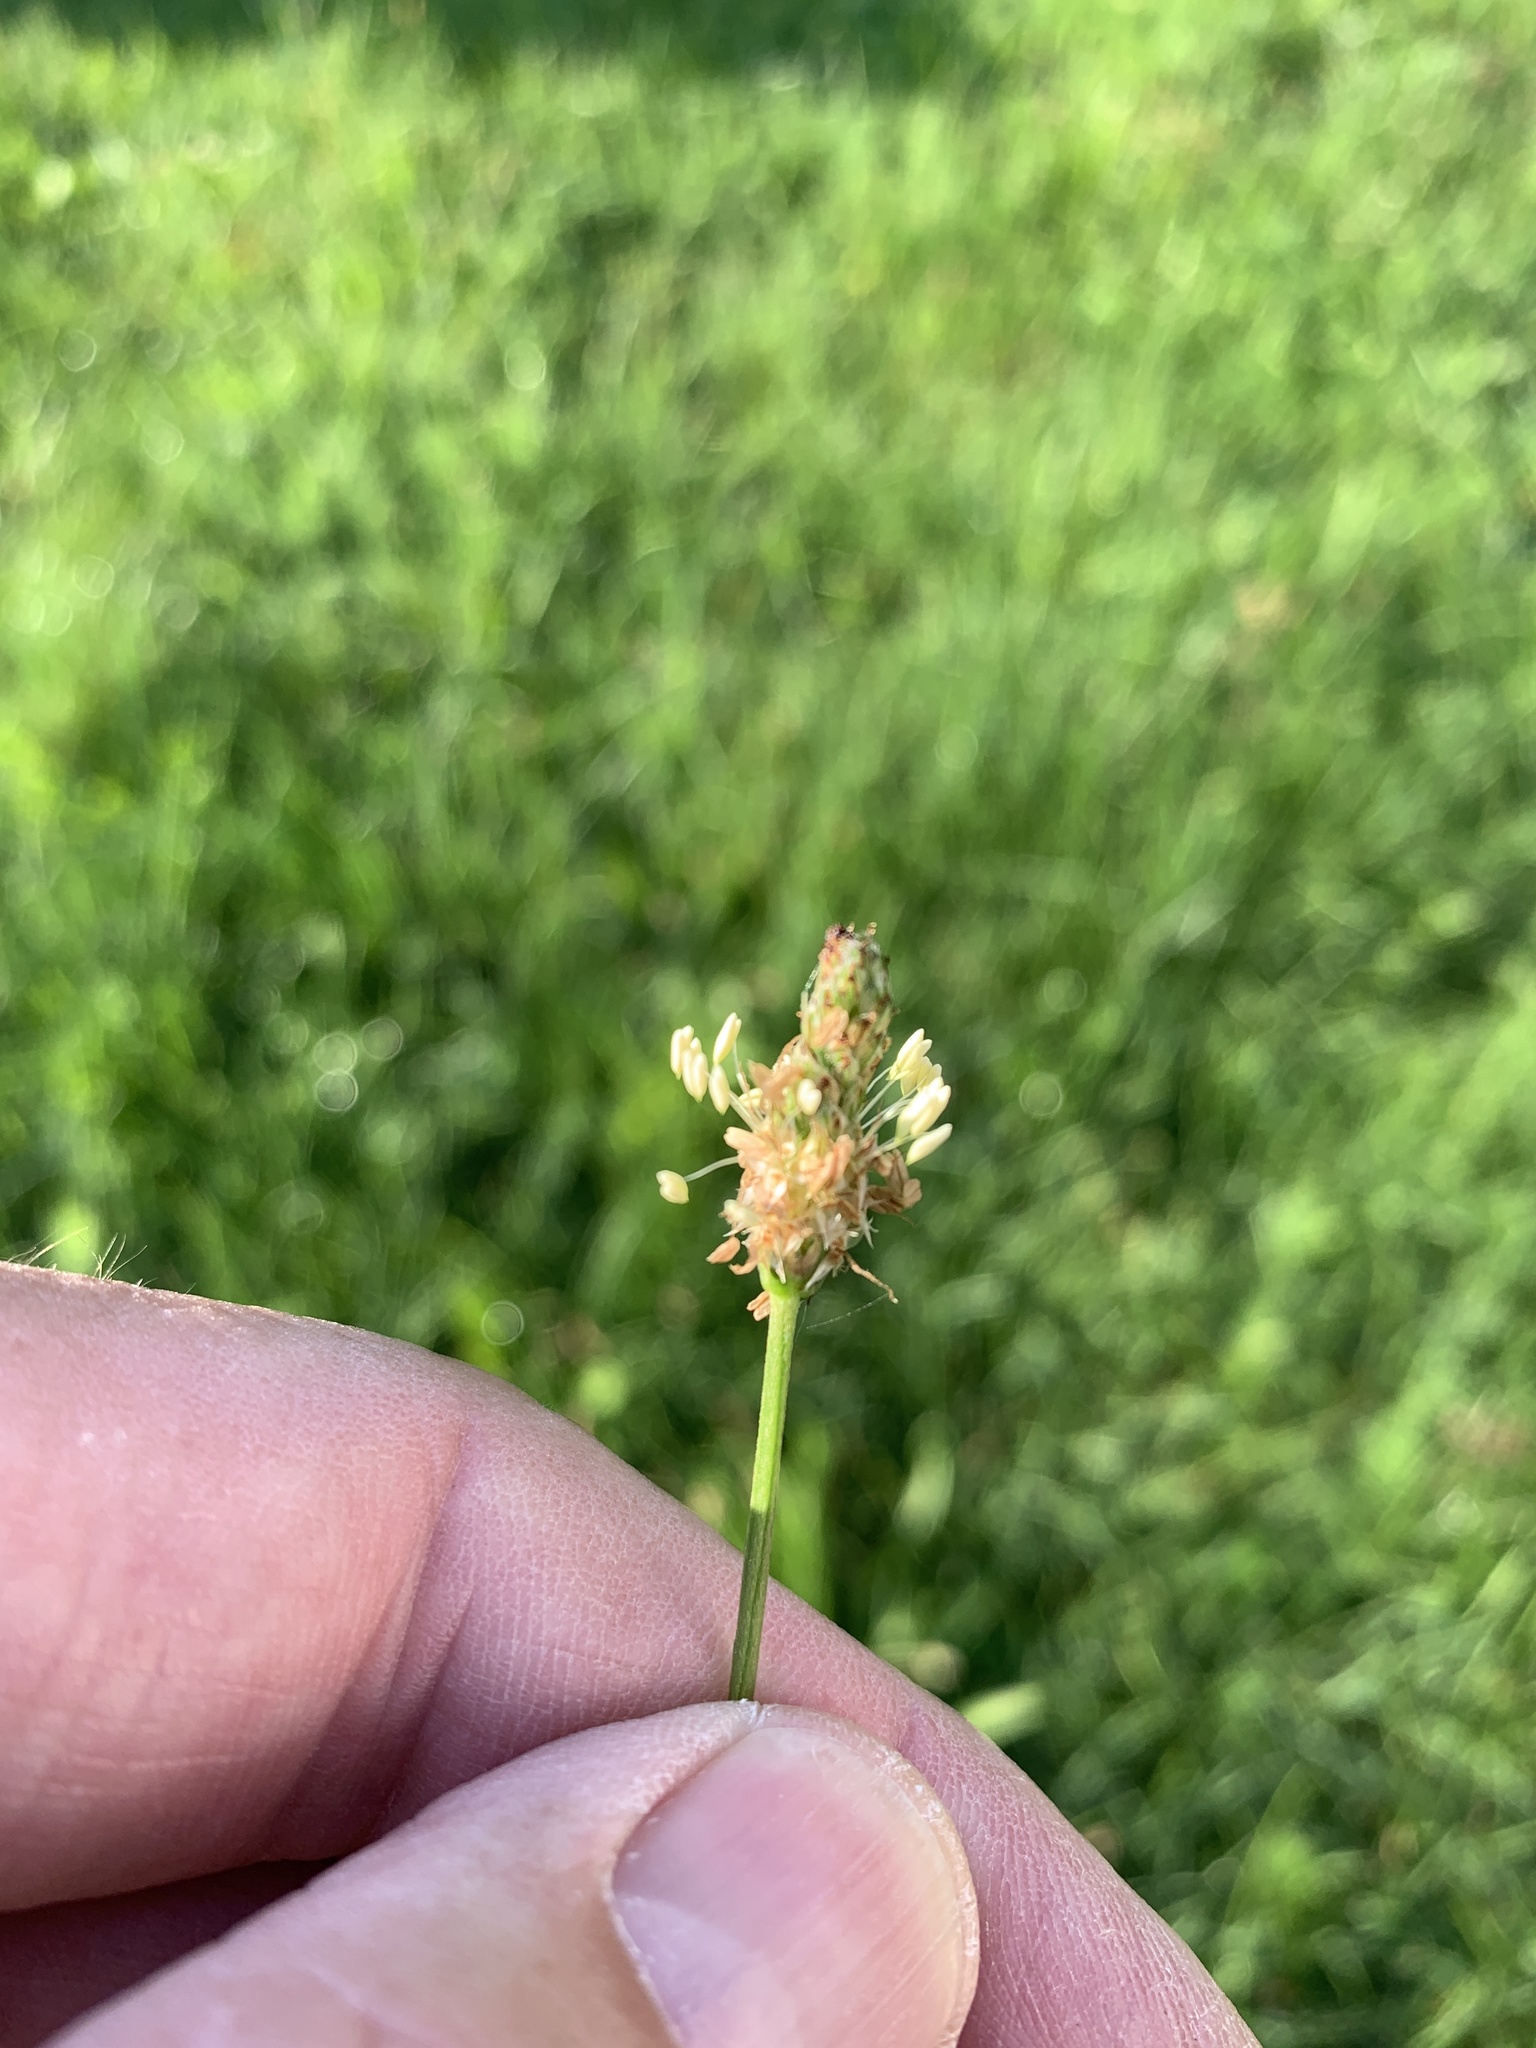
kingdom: Plantae
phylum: Tracheophyta
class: Magnoliopsida
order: Lamiales
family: Plantaginaceae
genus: Plantago
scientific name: Plantago lanceolata
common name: Ribwort plantain
